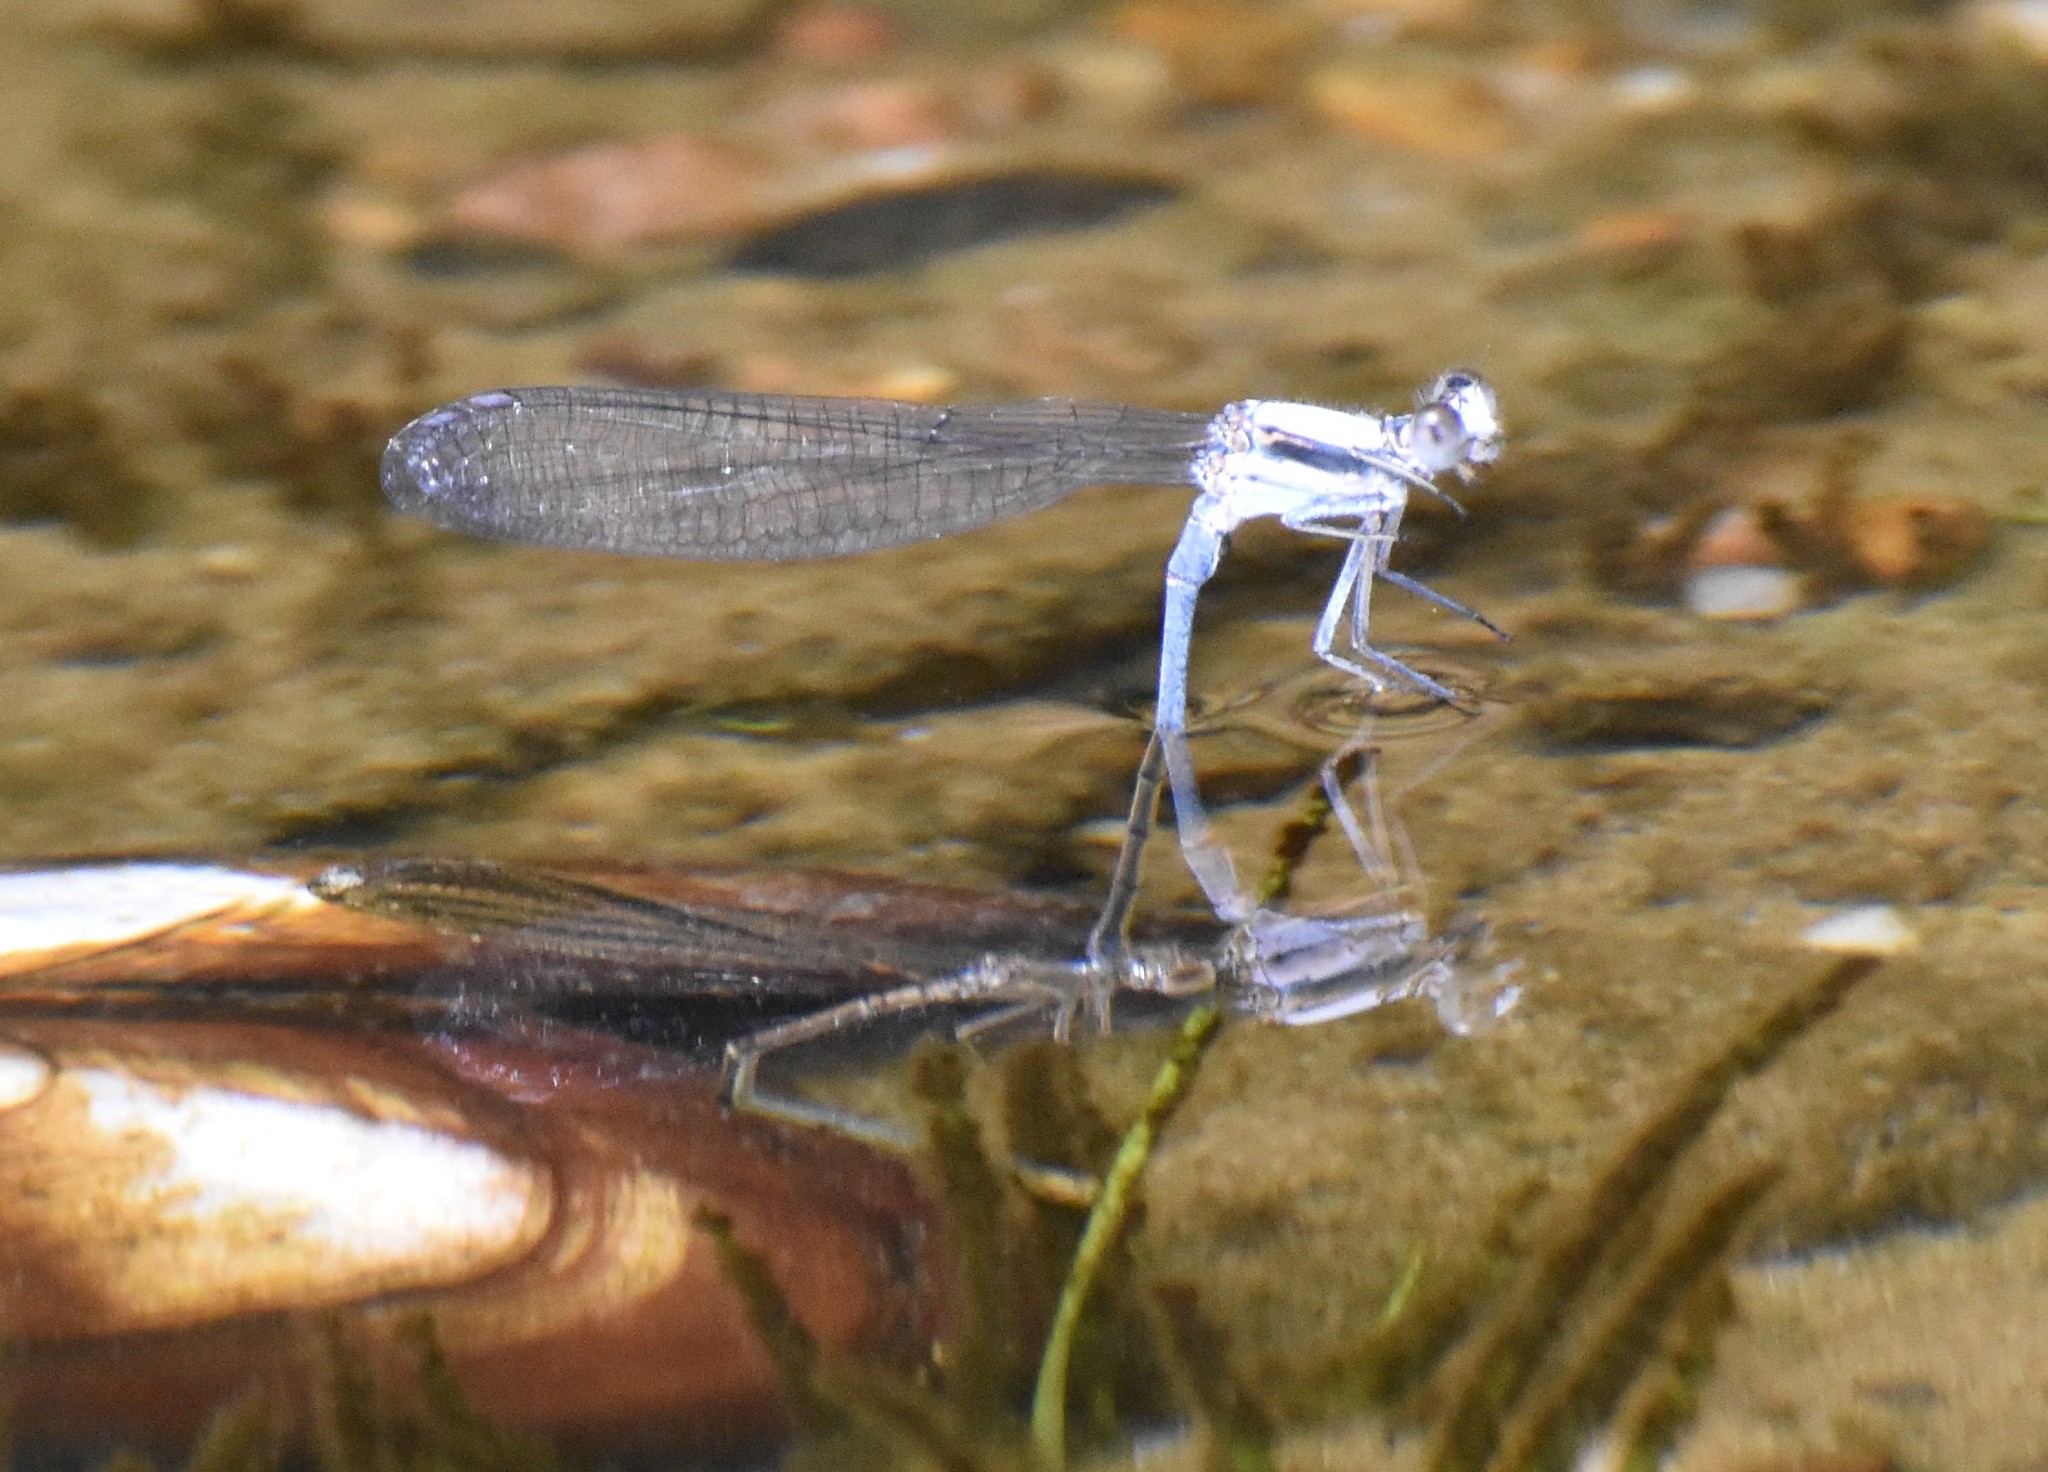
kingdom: Animalia
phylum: Arthropoda
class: Insecta
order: Odonata
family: Coenagrionidae
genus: Argia
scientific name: Argia moesta
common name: Powdered dancer
